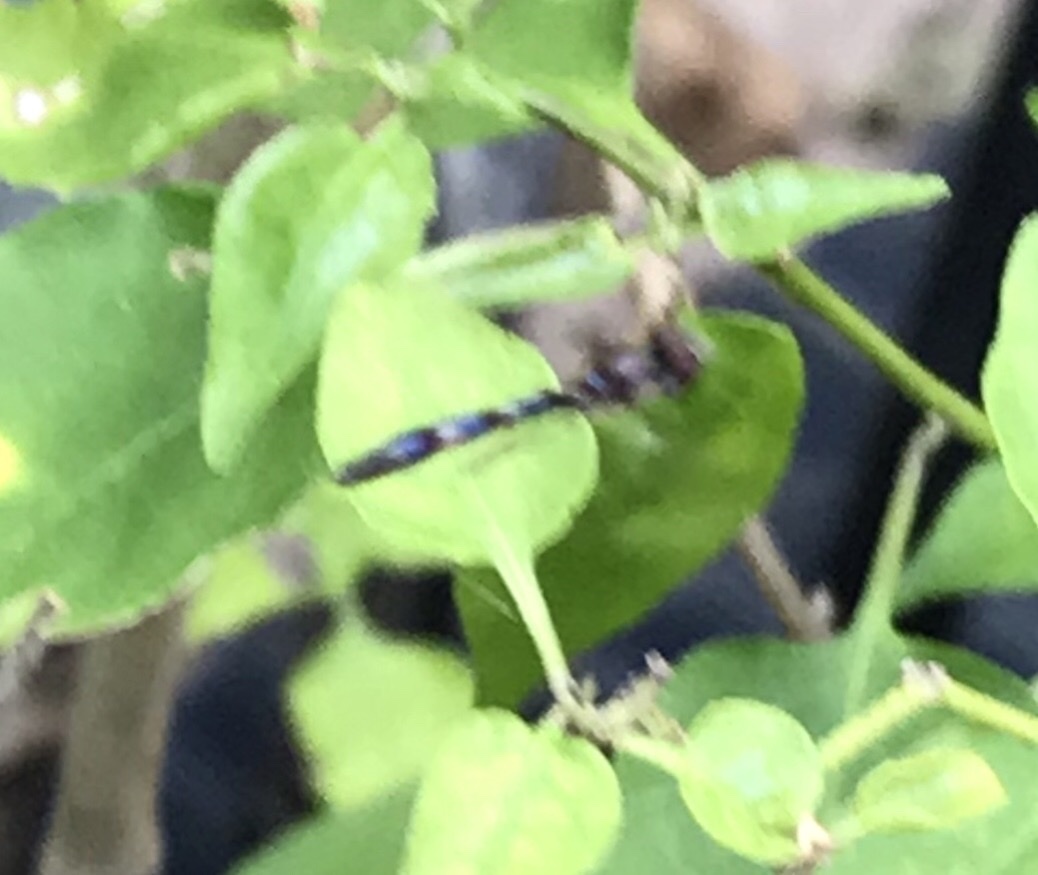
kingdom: Animalia
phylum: Arthropoda
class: Insecta
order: Diptera
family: Syrphidae
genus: Hypocritanus
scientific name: Hypocritanus fascipennis
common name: Eastern band-winged hover fly
